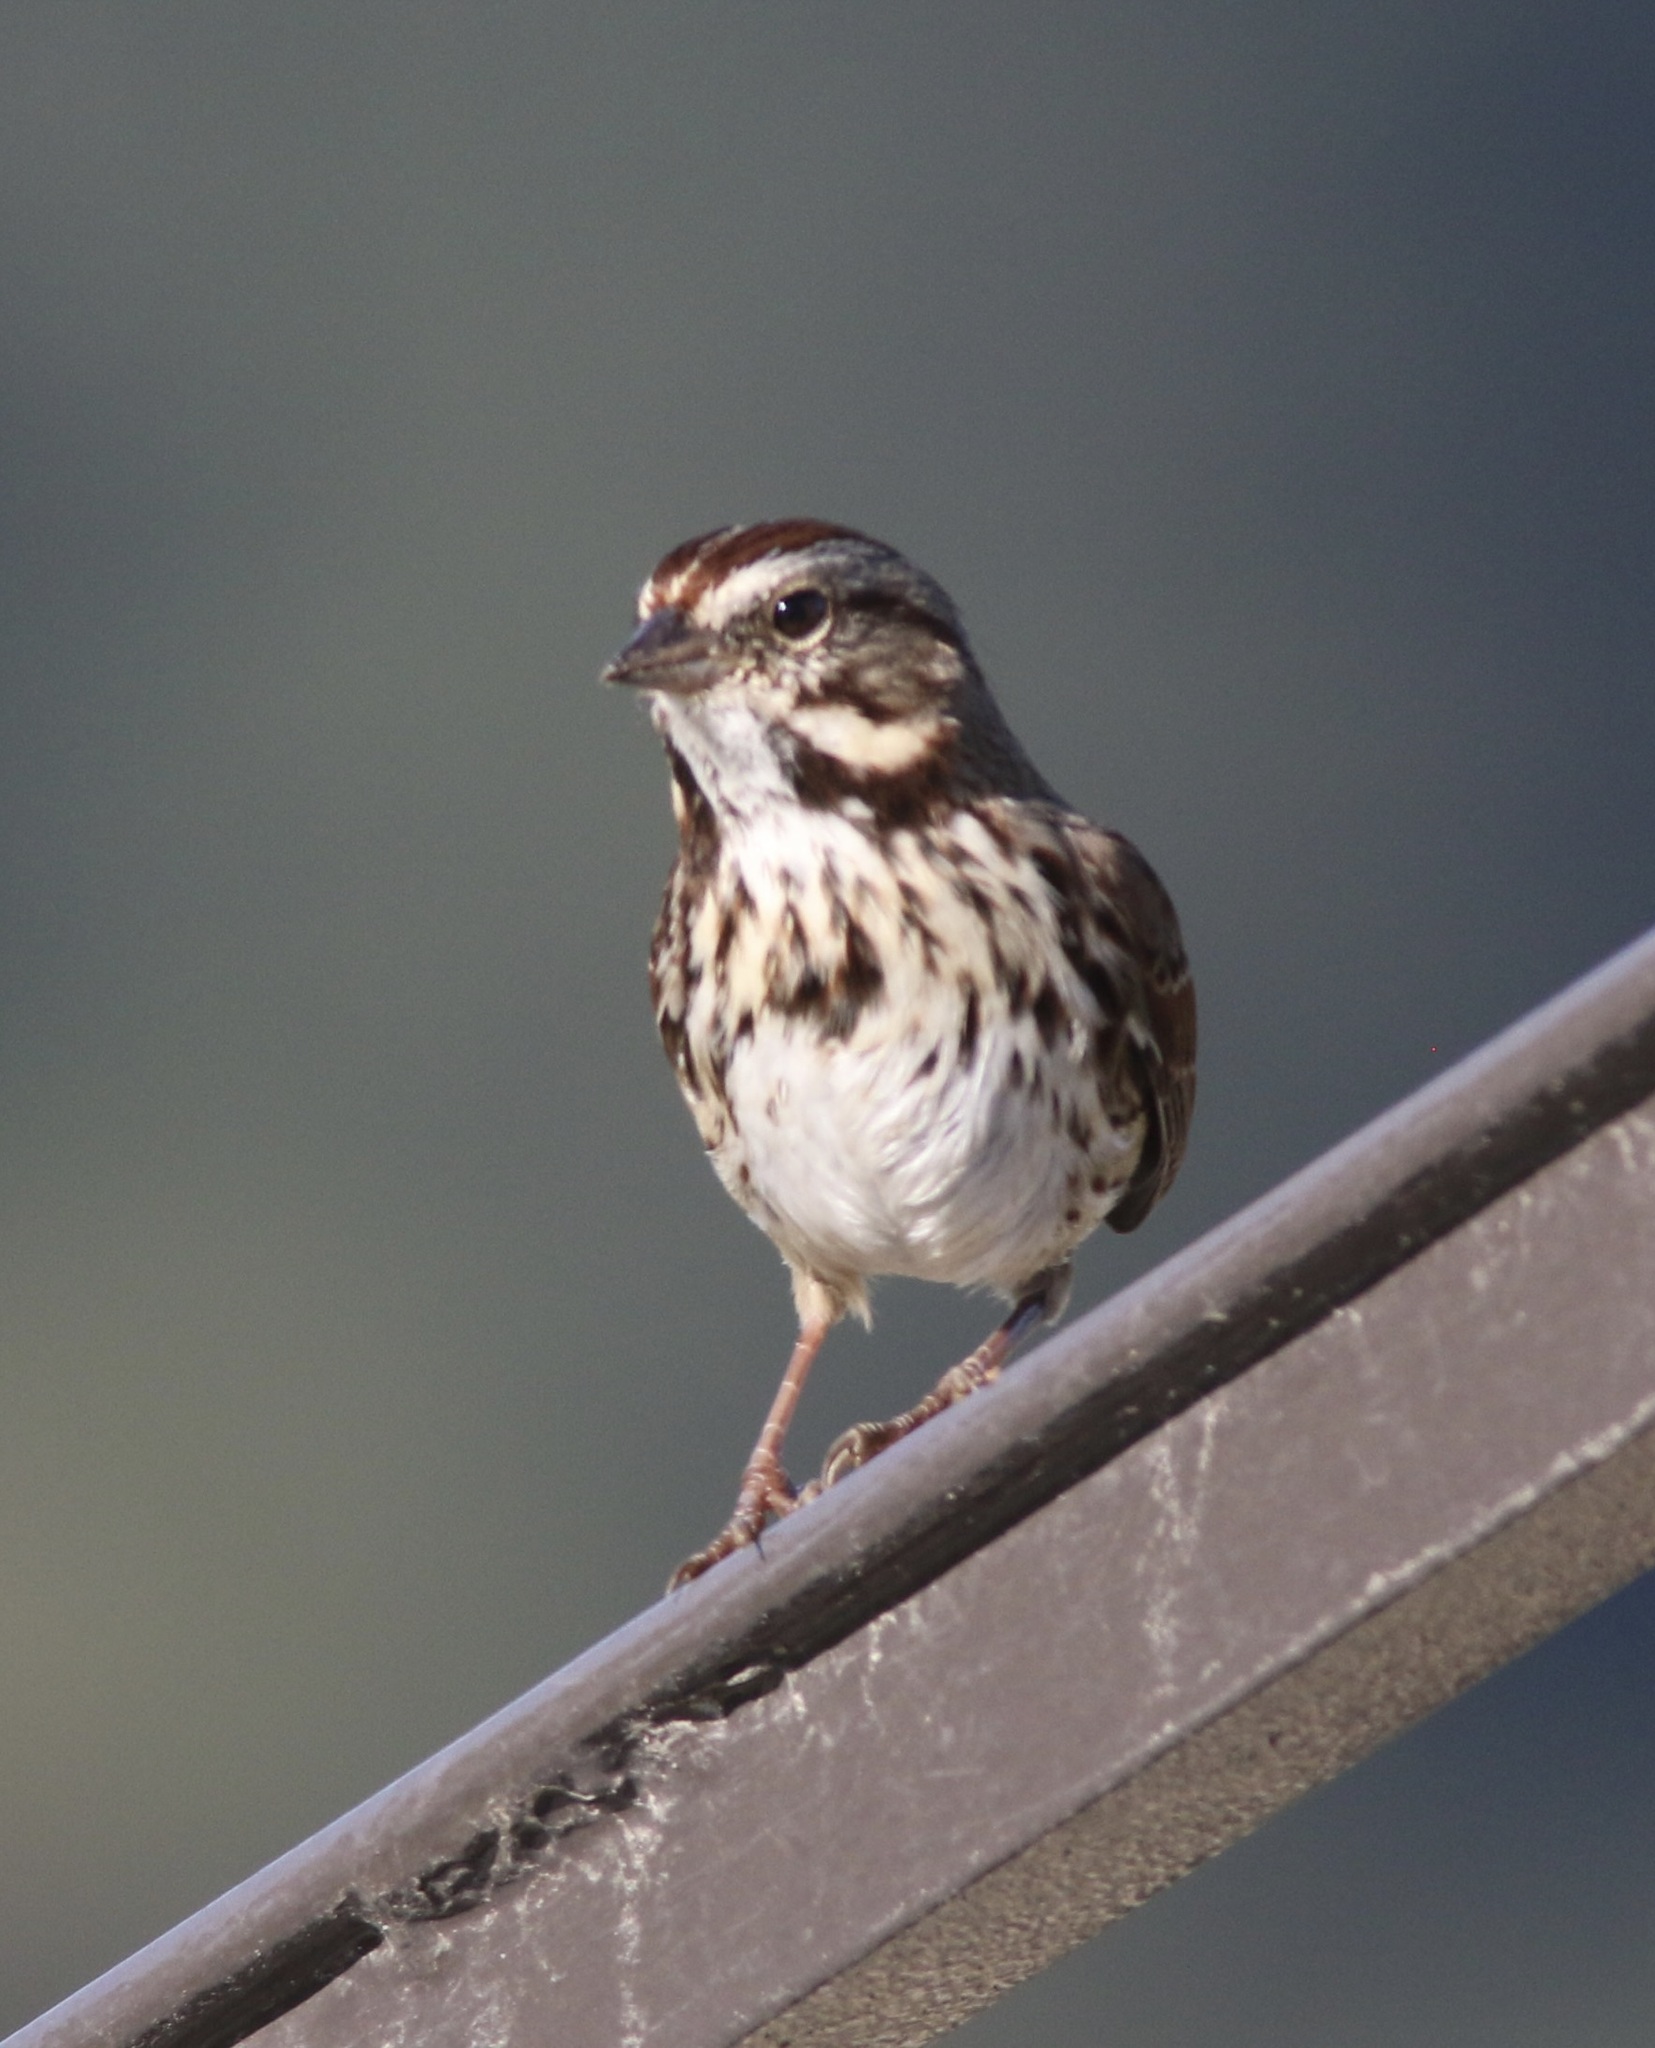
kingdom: Animalia
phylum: Chordata
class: Aves
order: Passeriformes
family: Passerellidae
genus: Melospiza
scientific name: Melospiza melodia
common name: Song sparrow
